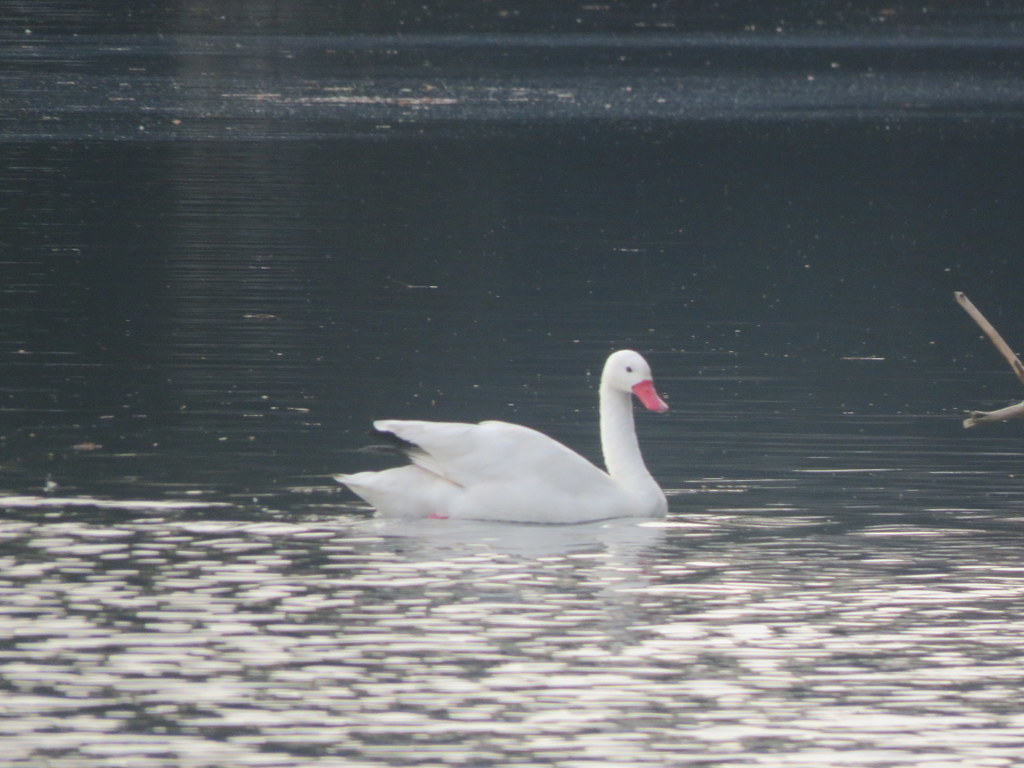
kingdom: Animalia
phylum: Chordata
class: Aves
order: Anseriformes
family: Anatidae
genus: Coscoroba
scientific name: Coscoroba coscoroba
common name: Coscoroba swan
